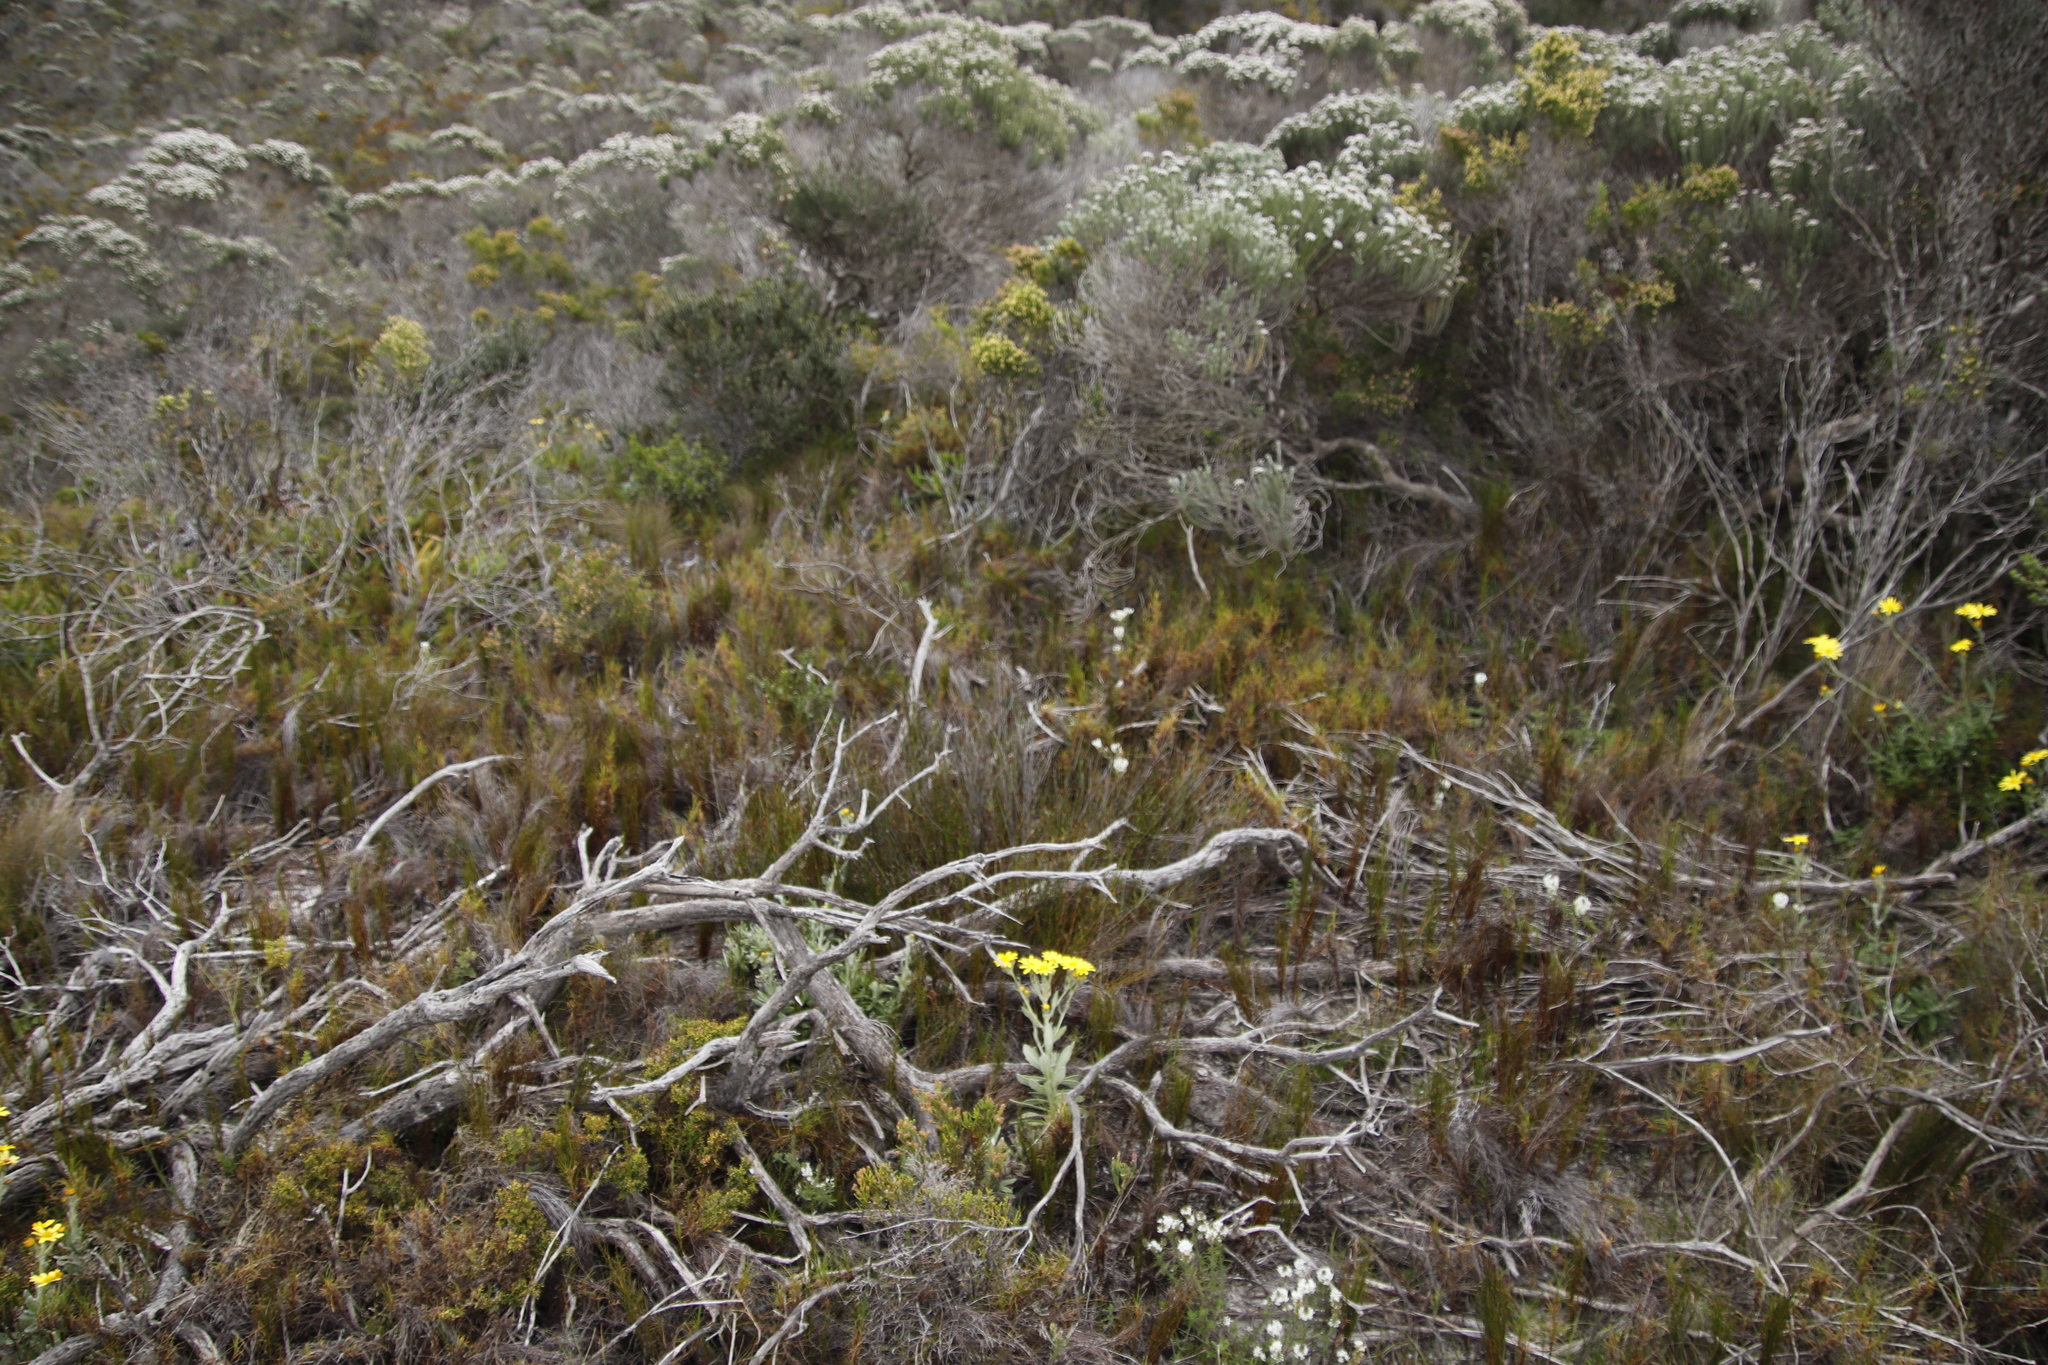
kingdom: Plantae
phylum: Tracheophyta
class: Liliopsida
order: Poales
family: Cyperaceae
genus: Ficinia
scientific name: Ficinia ramosissima
